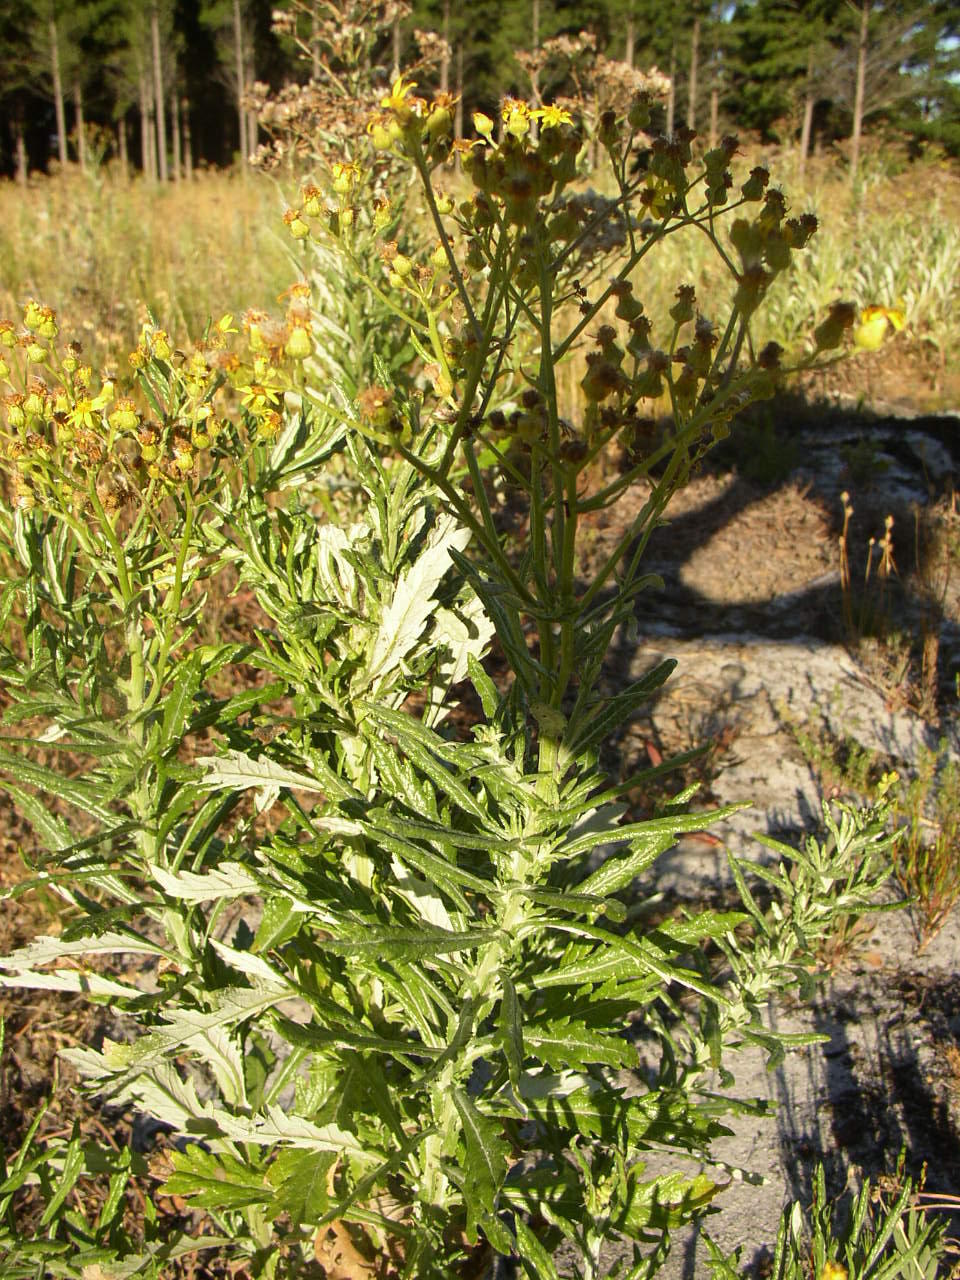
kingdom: Plantae
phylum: Tracheophyta
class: Magnoliopsida
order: Asterales
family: Asteraceae
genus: Senecio
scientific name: Senecio pterophorus
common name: Shoddy ragwort
